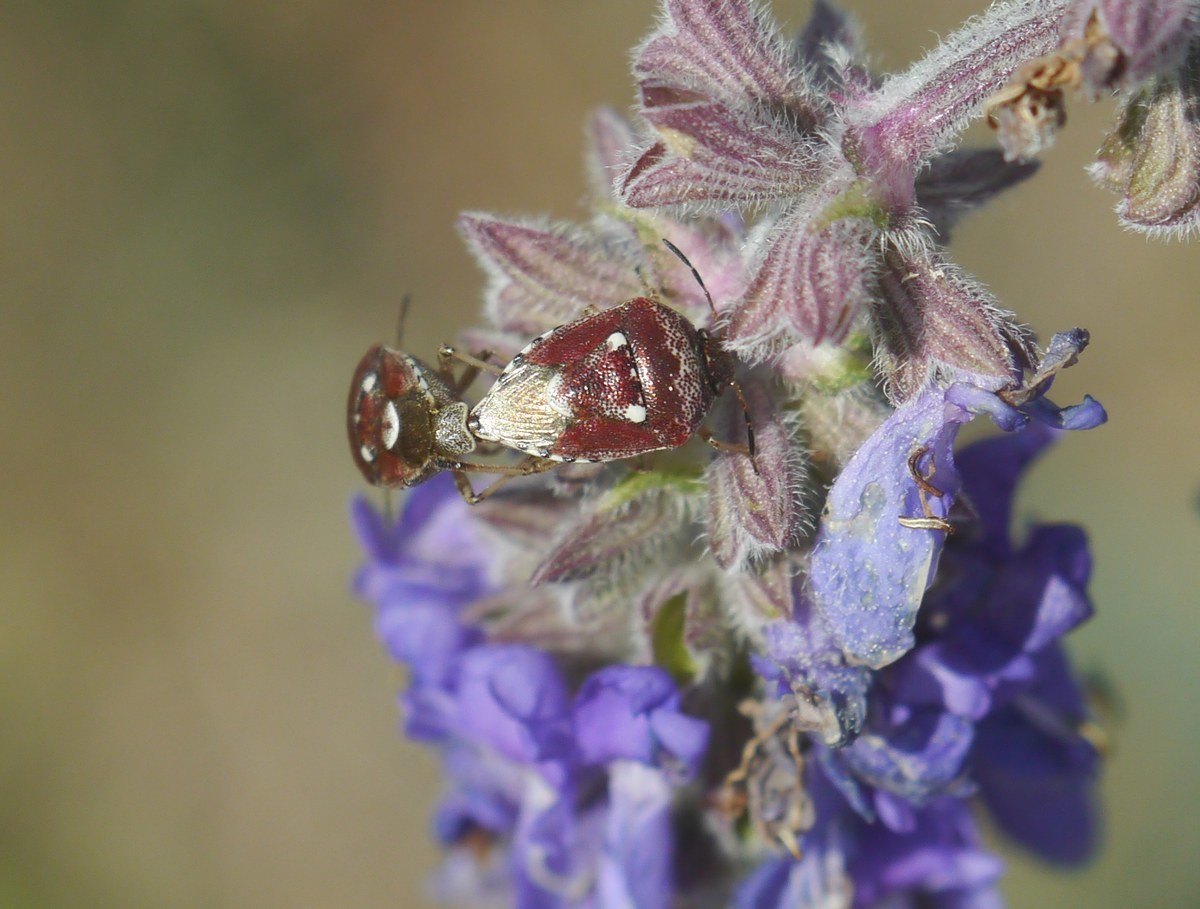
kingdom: Animalia
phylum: Arthropoda
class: Insecta
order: Hemiptera
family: Pentatomidae
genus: Stagonomus
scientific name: Stagonomus amoenus
